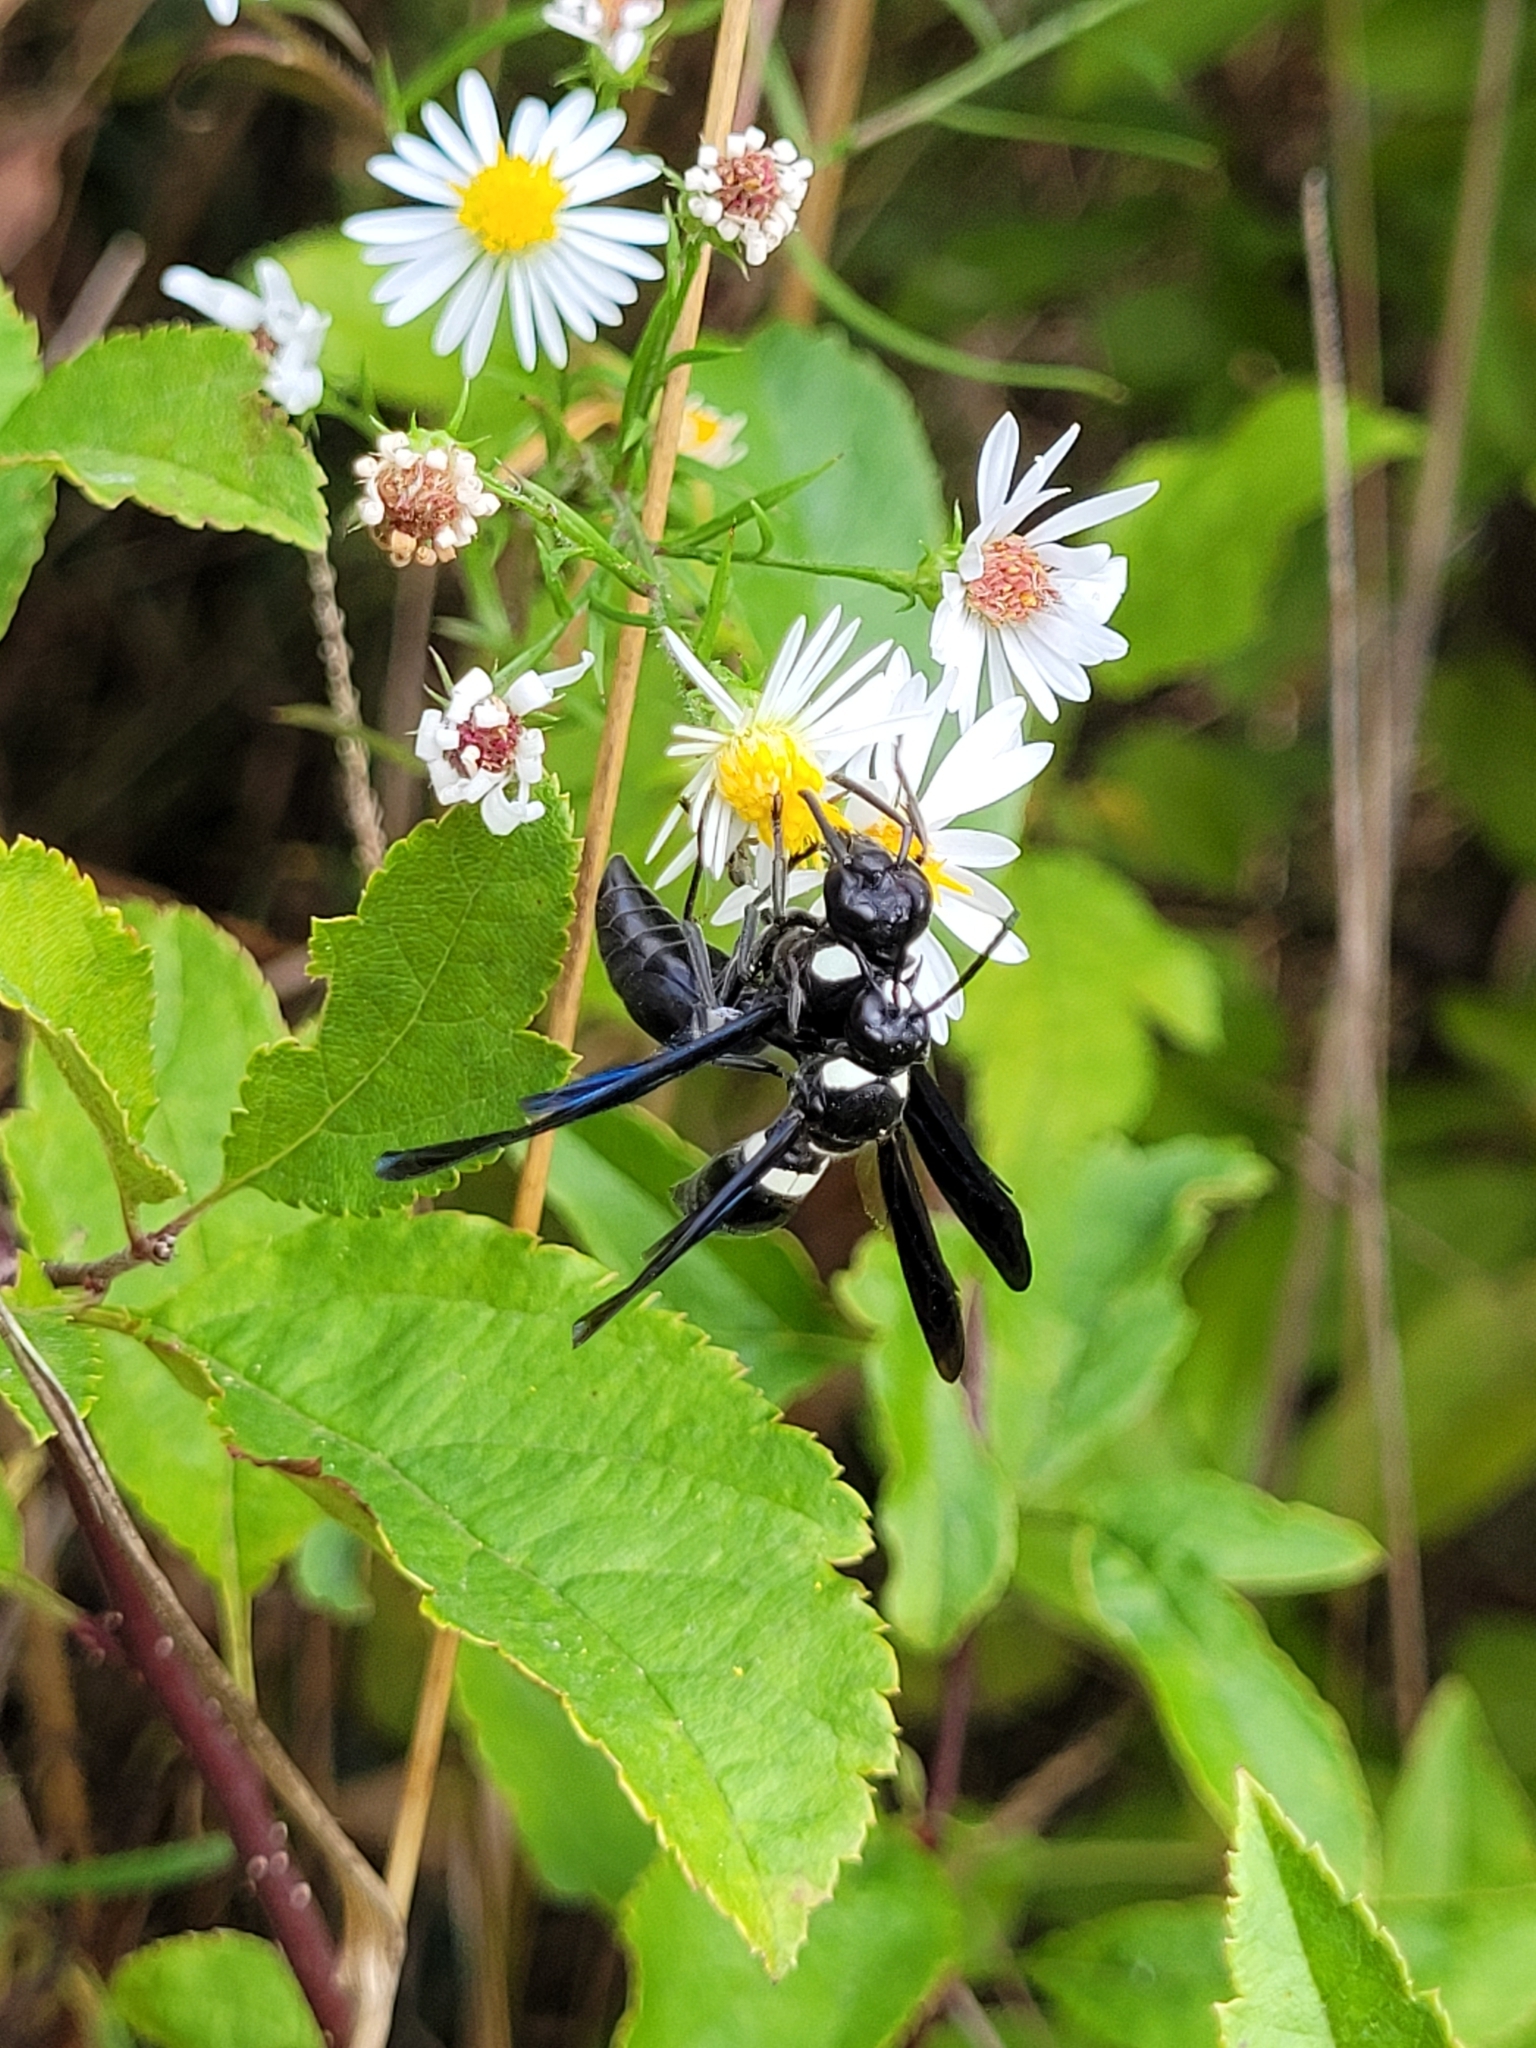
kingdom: Animalia
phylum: Arthropoda
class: Insecta
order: Hymenoptera
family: Eumenidae
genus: Monobia
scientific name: Monobia quadridens
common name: Four-toothed mason wasp
